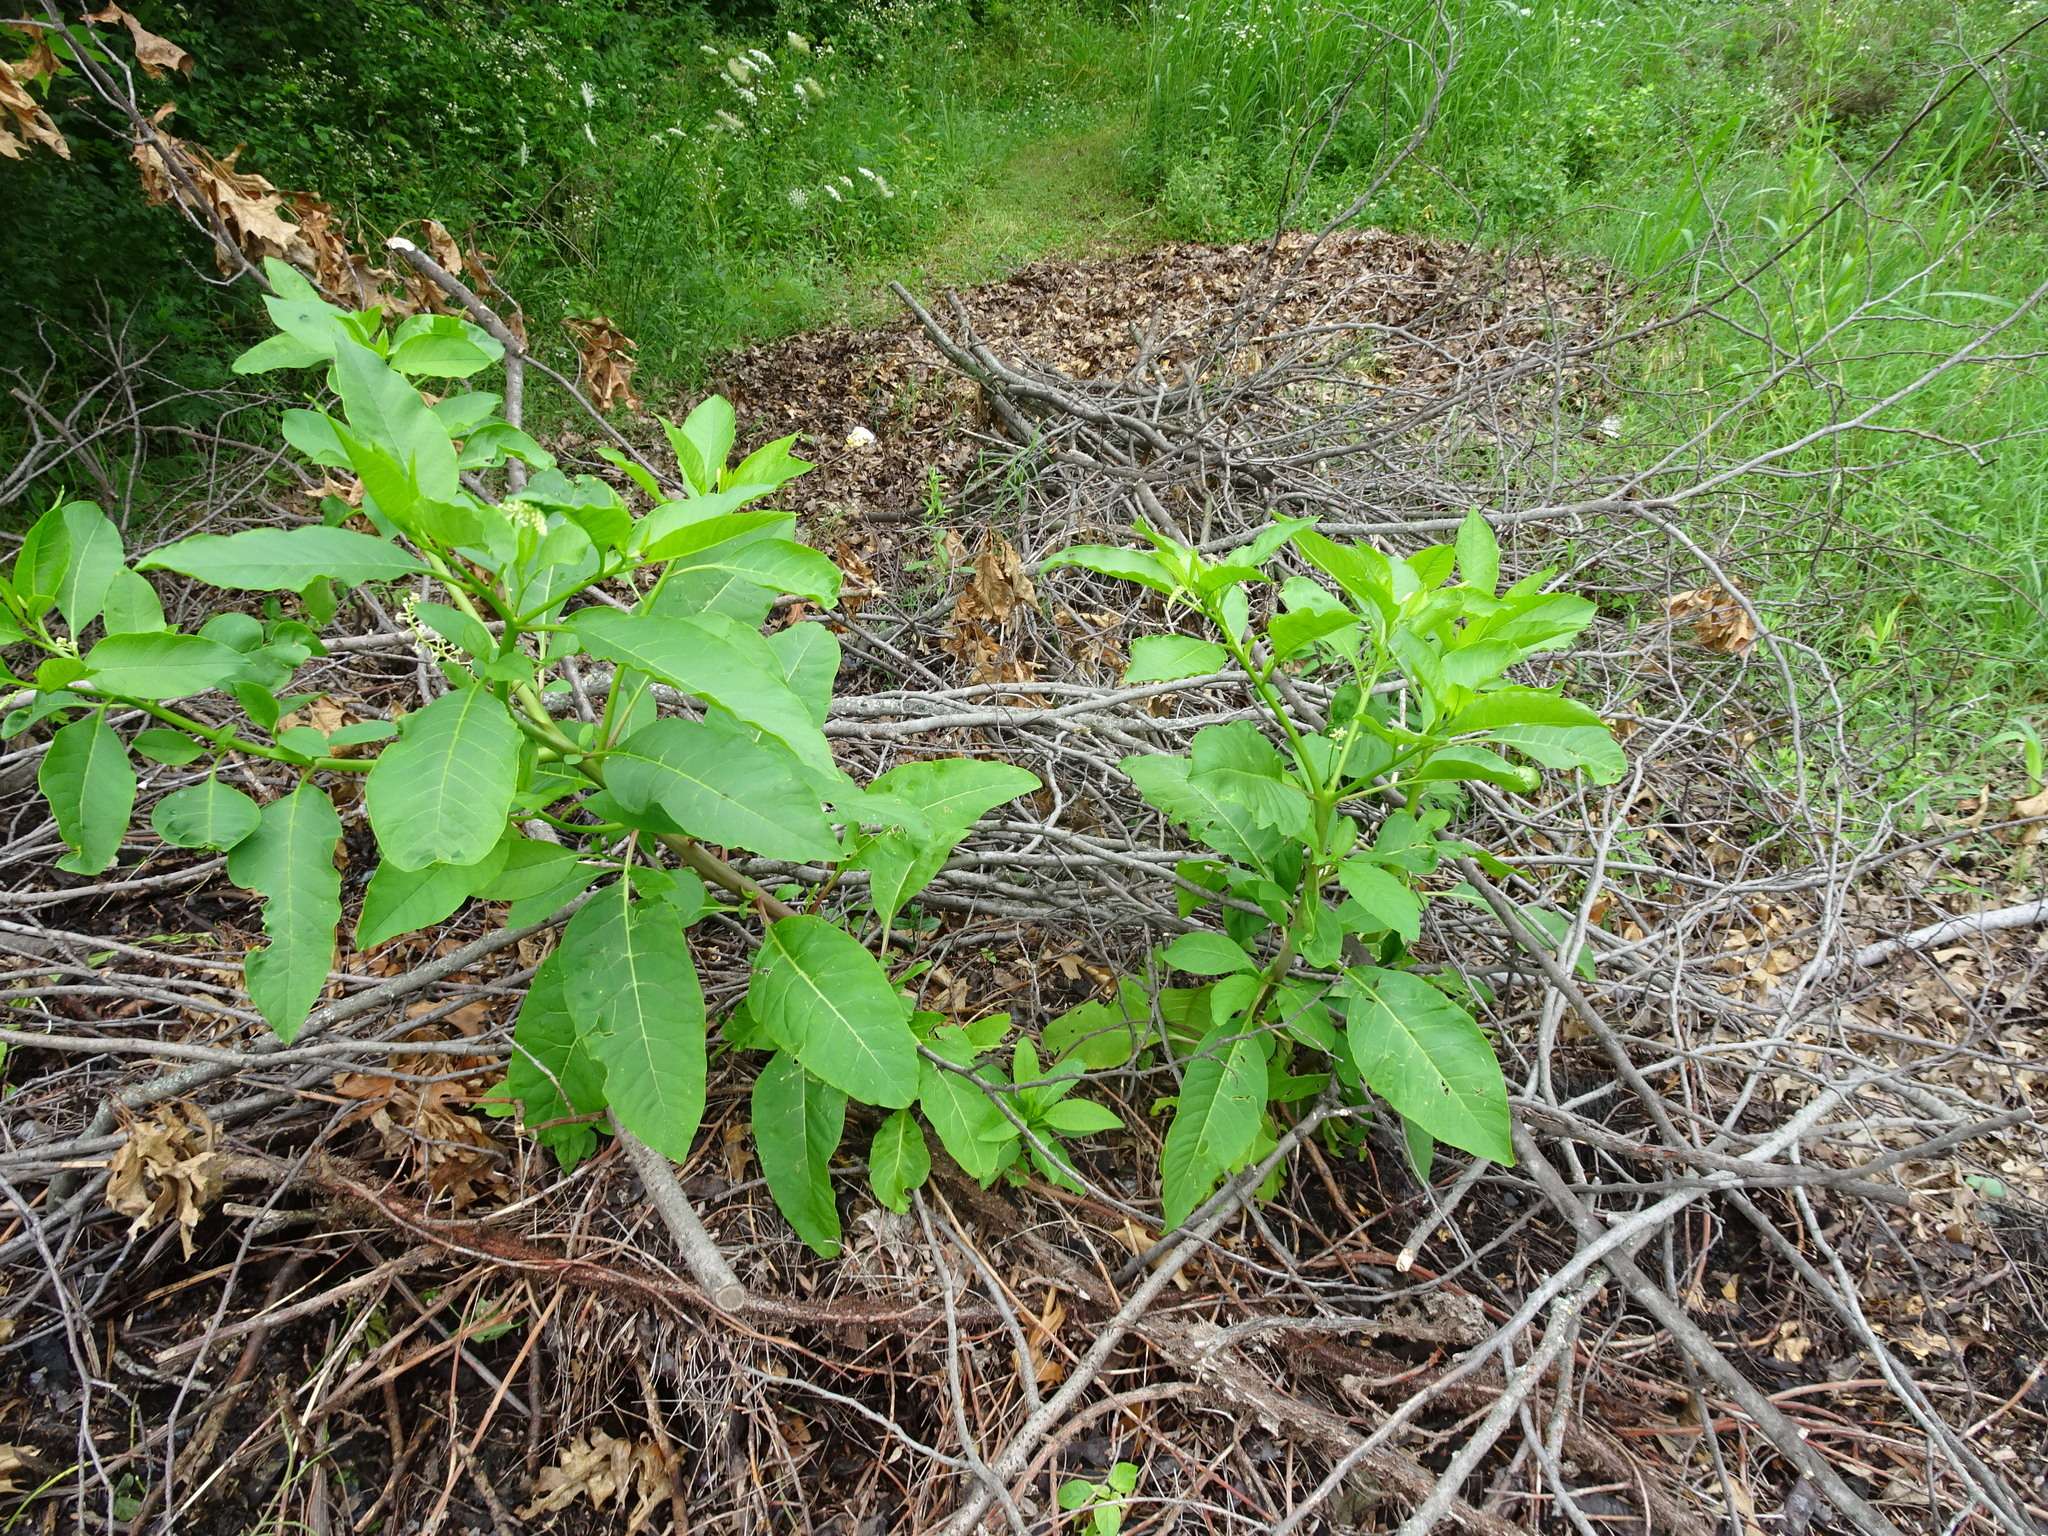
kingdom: Plantae
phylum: Tracheophyta
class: Magnoliopsida
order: Caryophyllales
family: Phytolaccaceae
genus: Phytolacca
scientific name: Phytolacca americana
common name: American pokeweed
